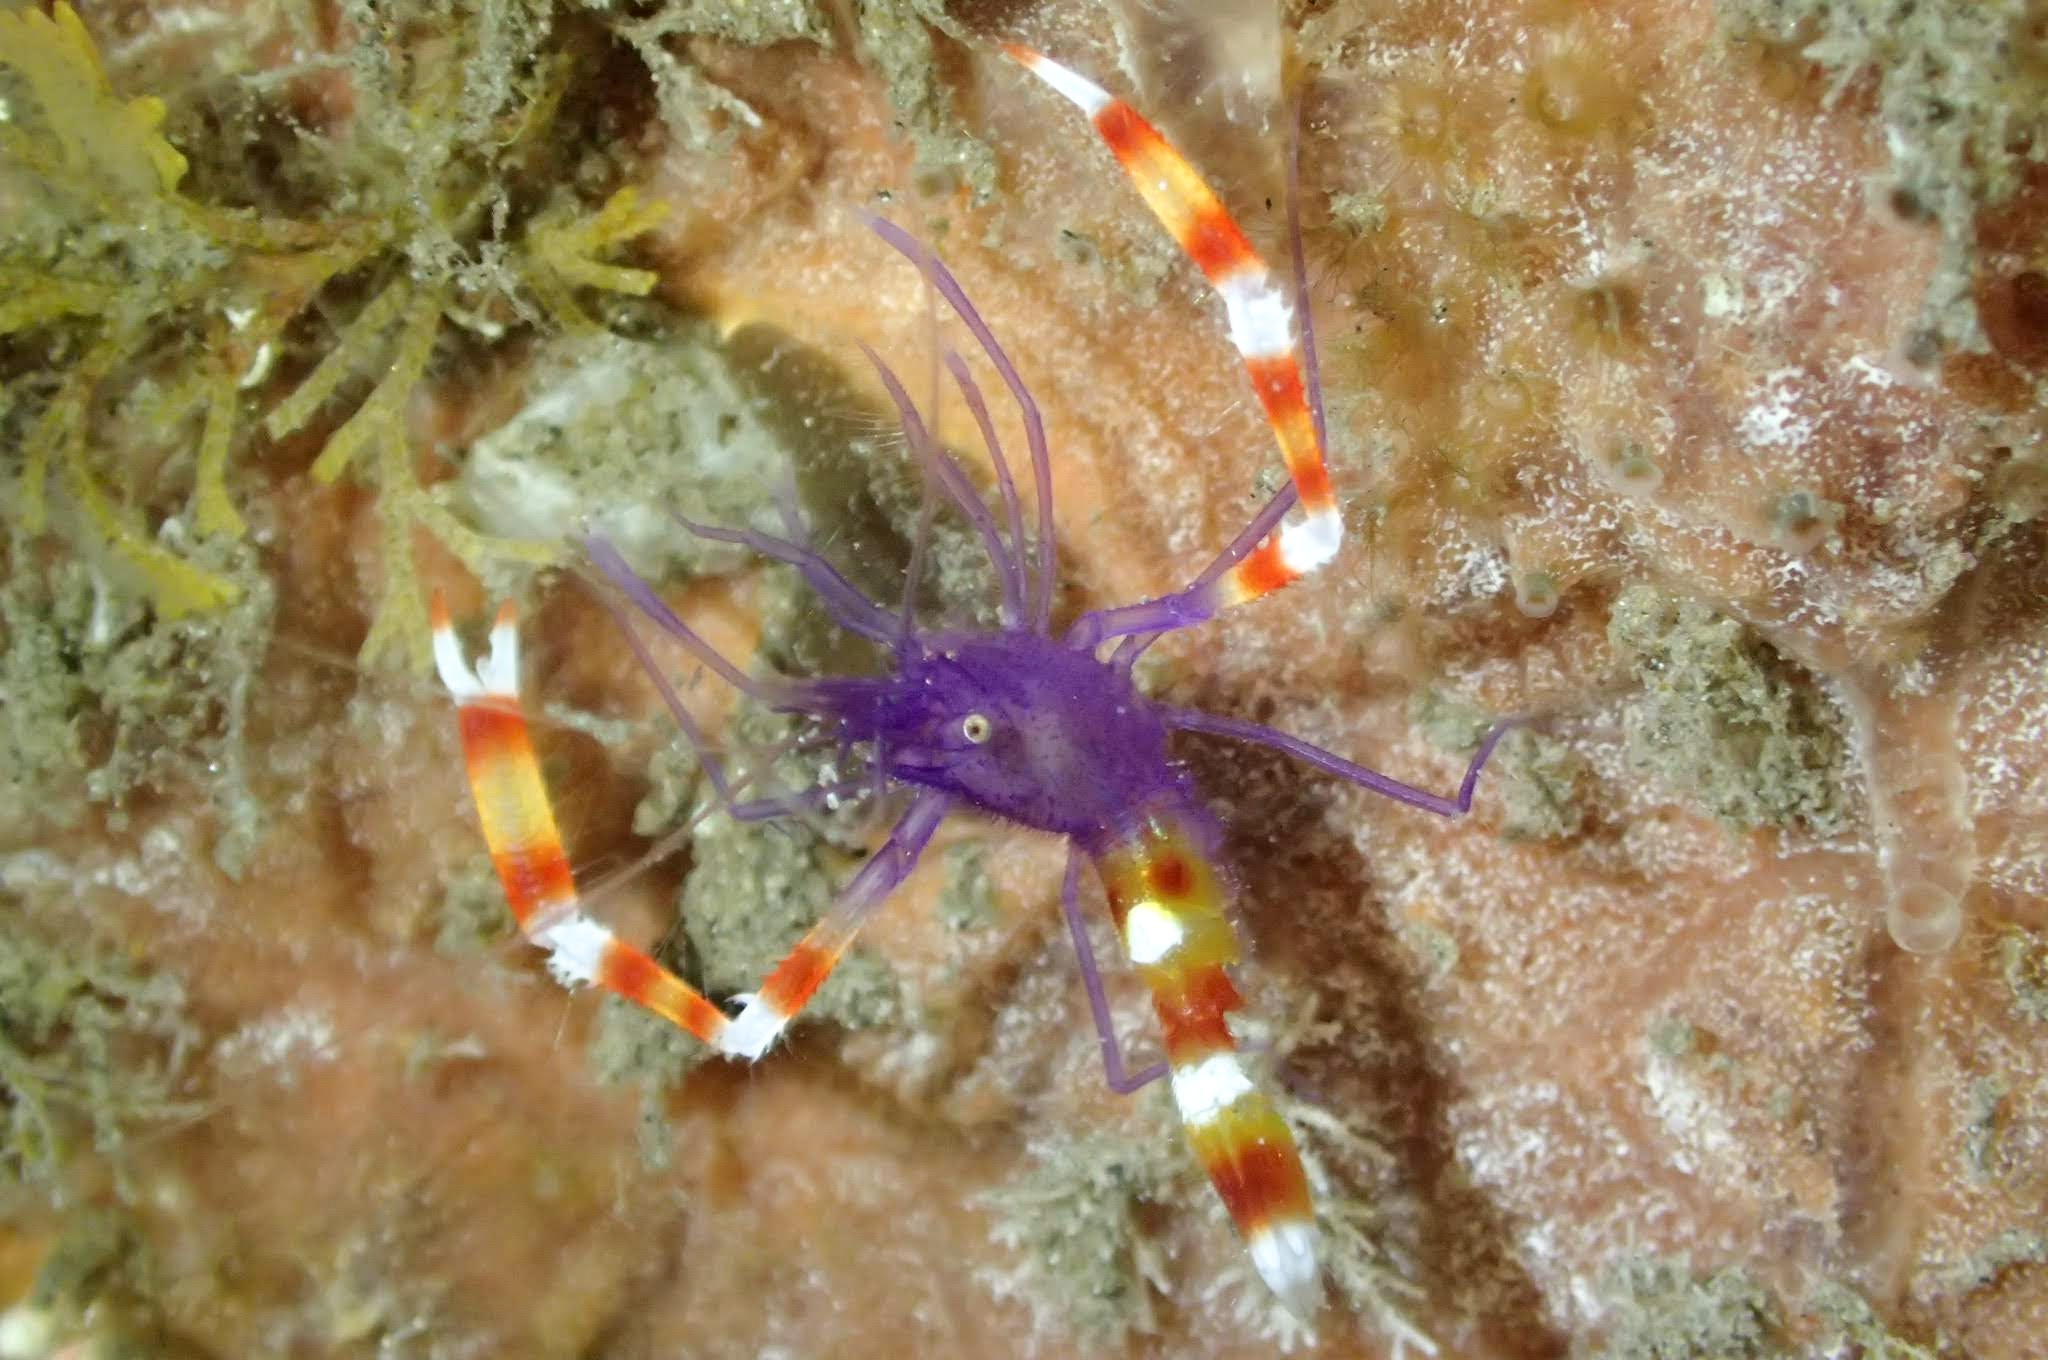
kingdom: Animalia
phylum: Arthropoda
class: Malacostraca
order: Decapoda
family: Stenopodidae
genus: Stenopus
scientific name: Stenopus tenuirostris
